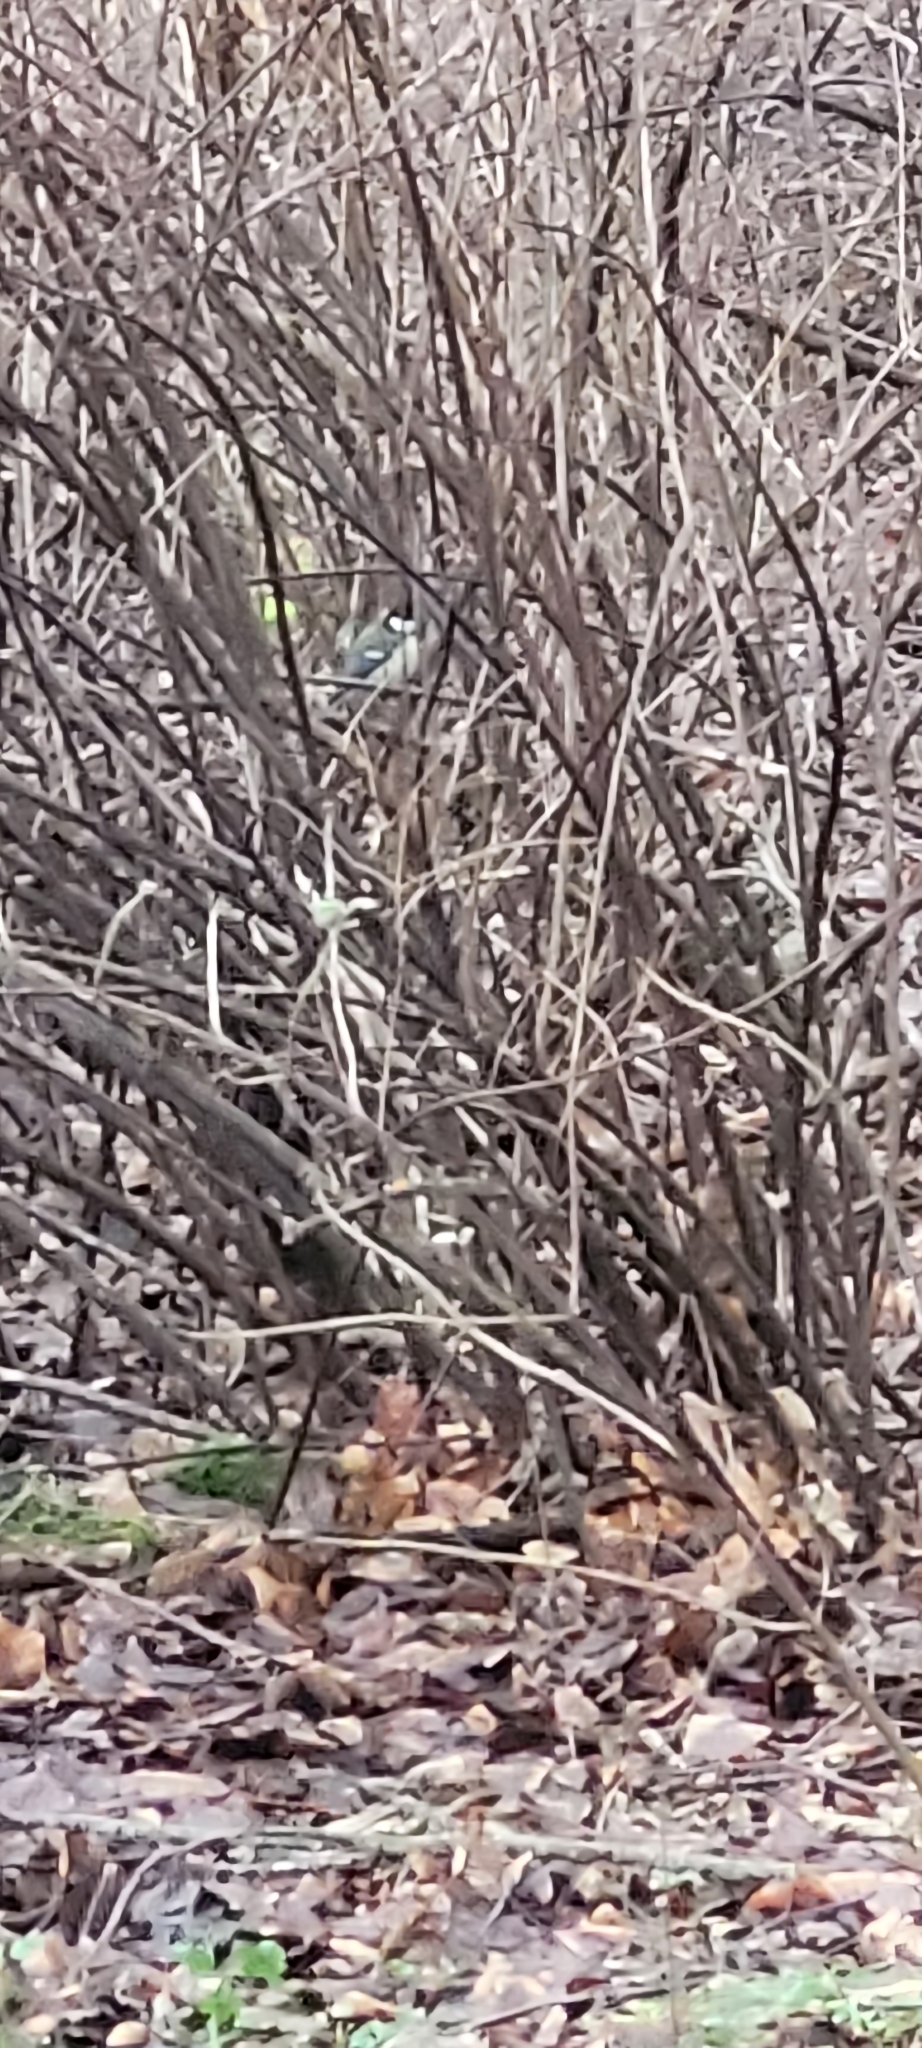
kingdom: Animalia
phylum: Chordata
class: Aves
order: Passeriformes
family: Paridae
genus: Parus
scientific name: Parus major
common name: Great tit
